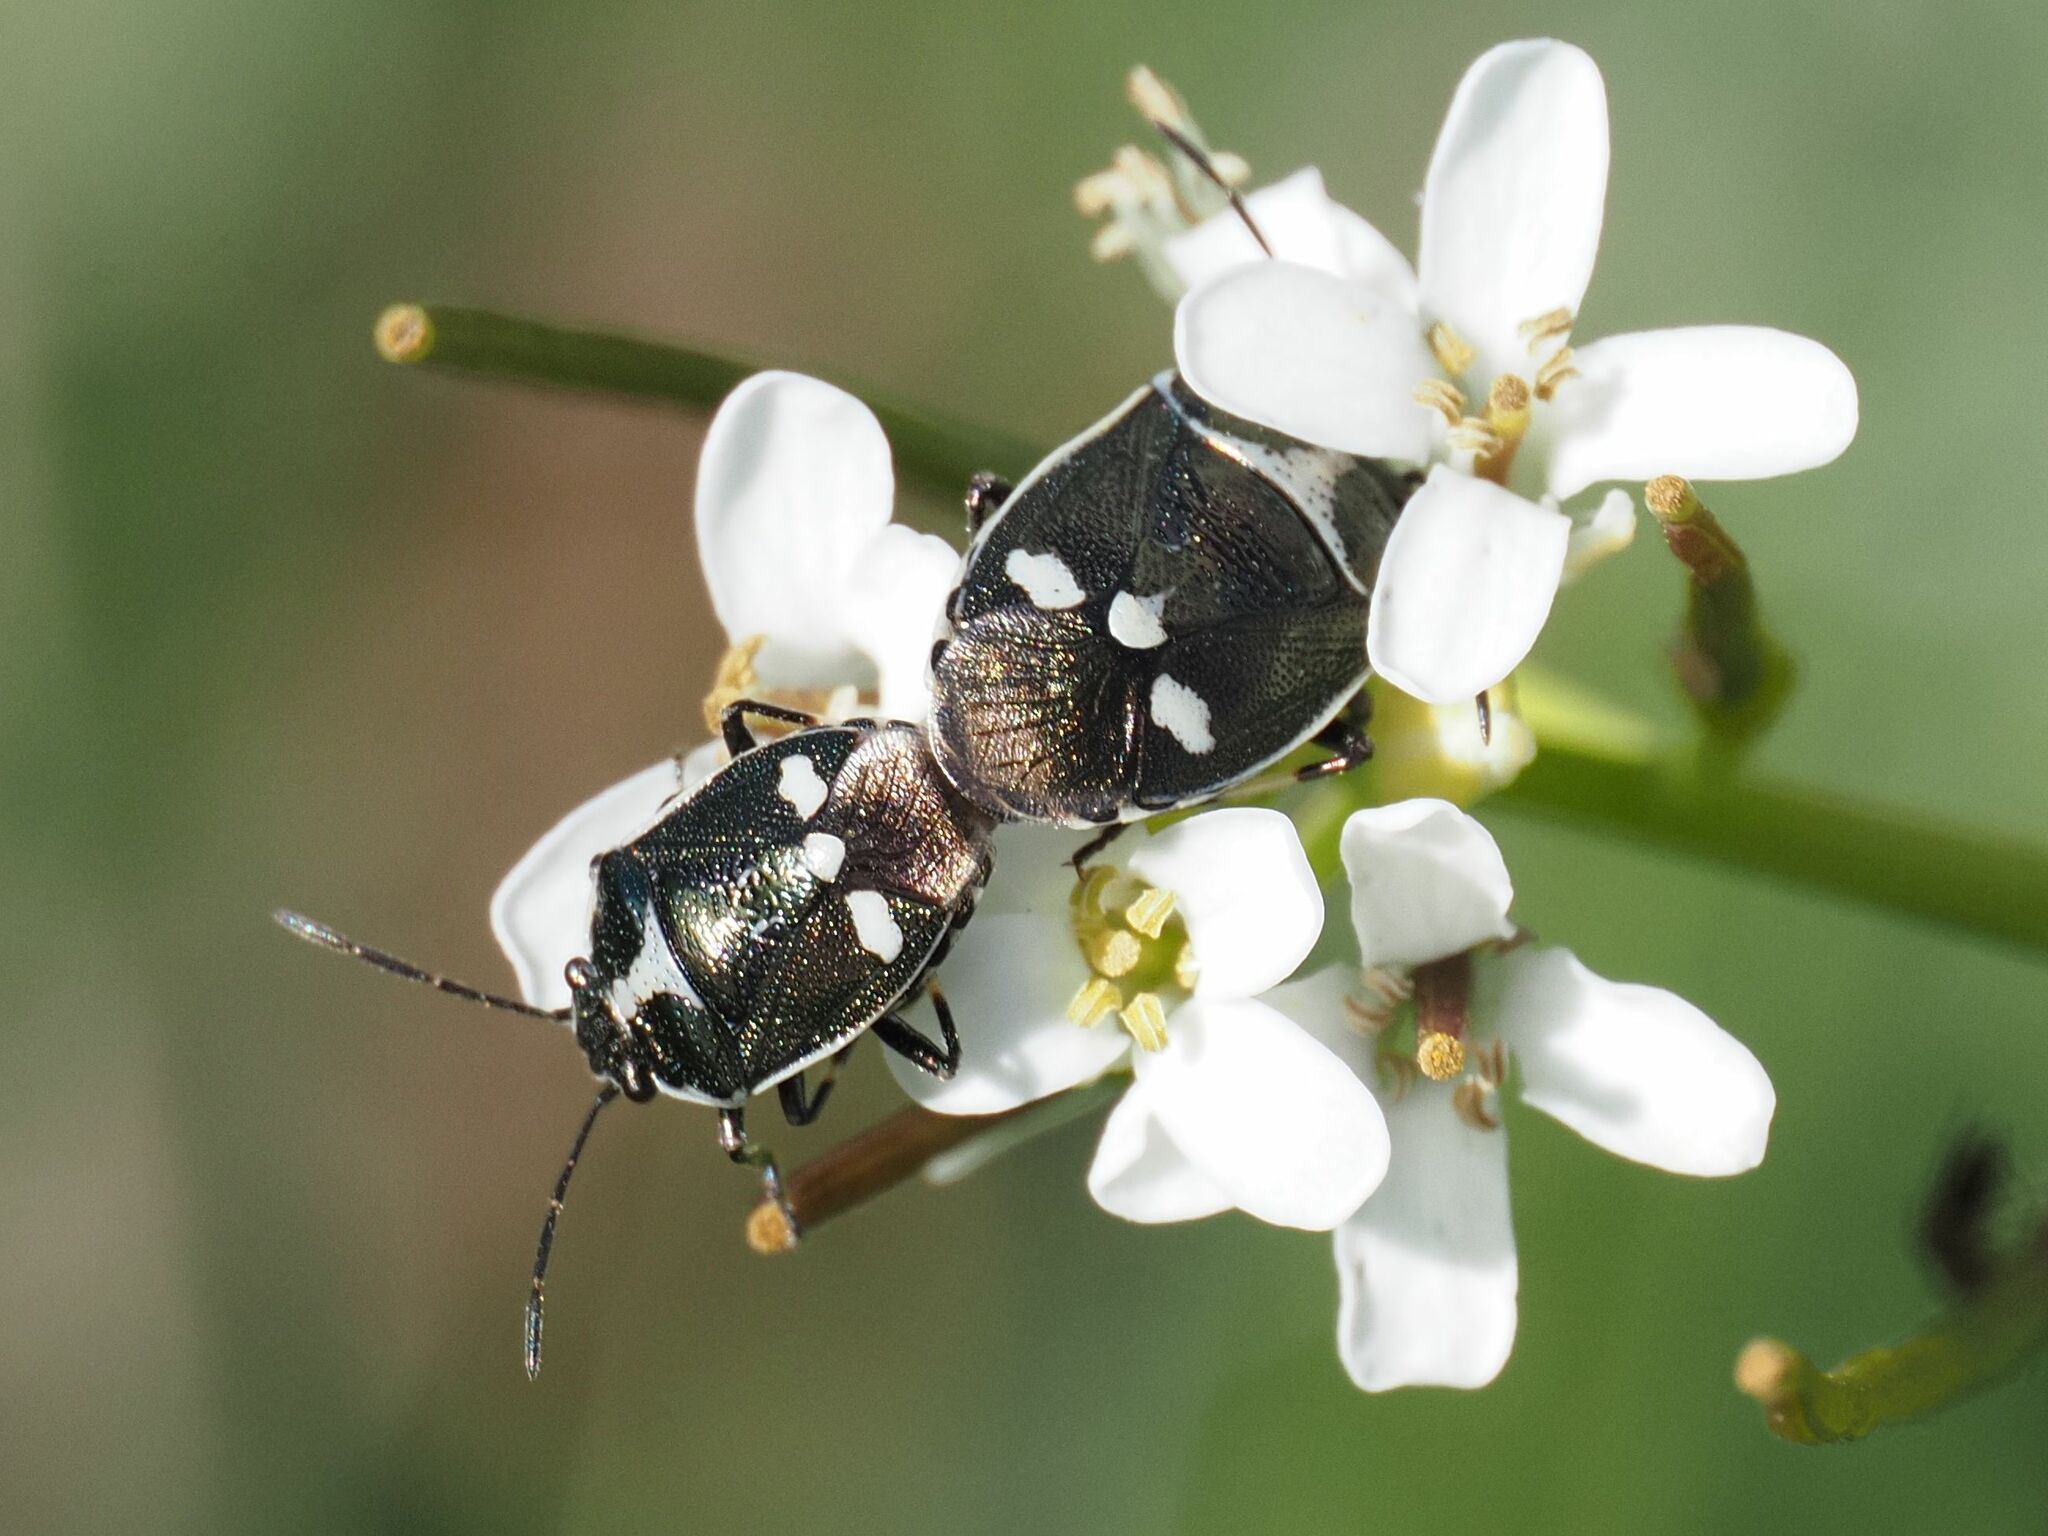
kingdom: Animalia
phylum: Arthropoda
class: Insecta
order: Hemiptera
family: Pentatomidae
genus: Eurydema
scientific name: Eurydema oleracea
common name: Cabbage bug
